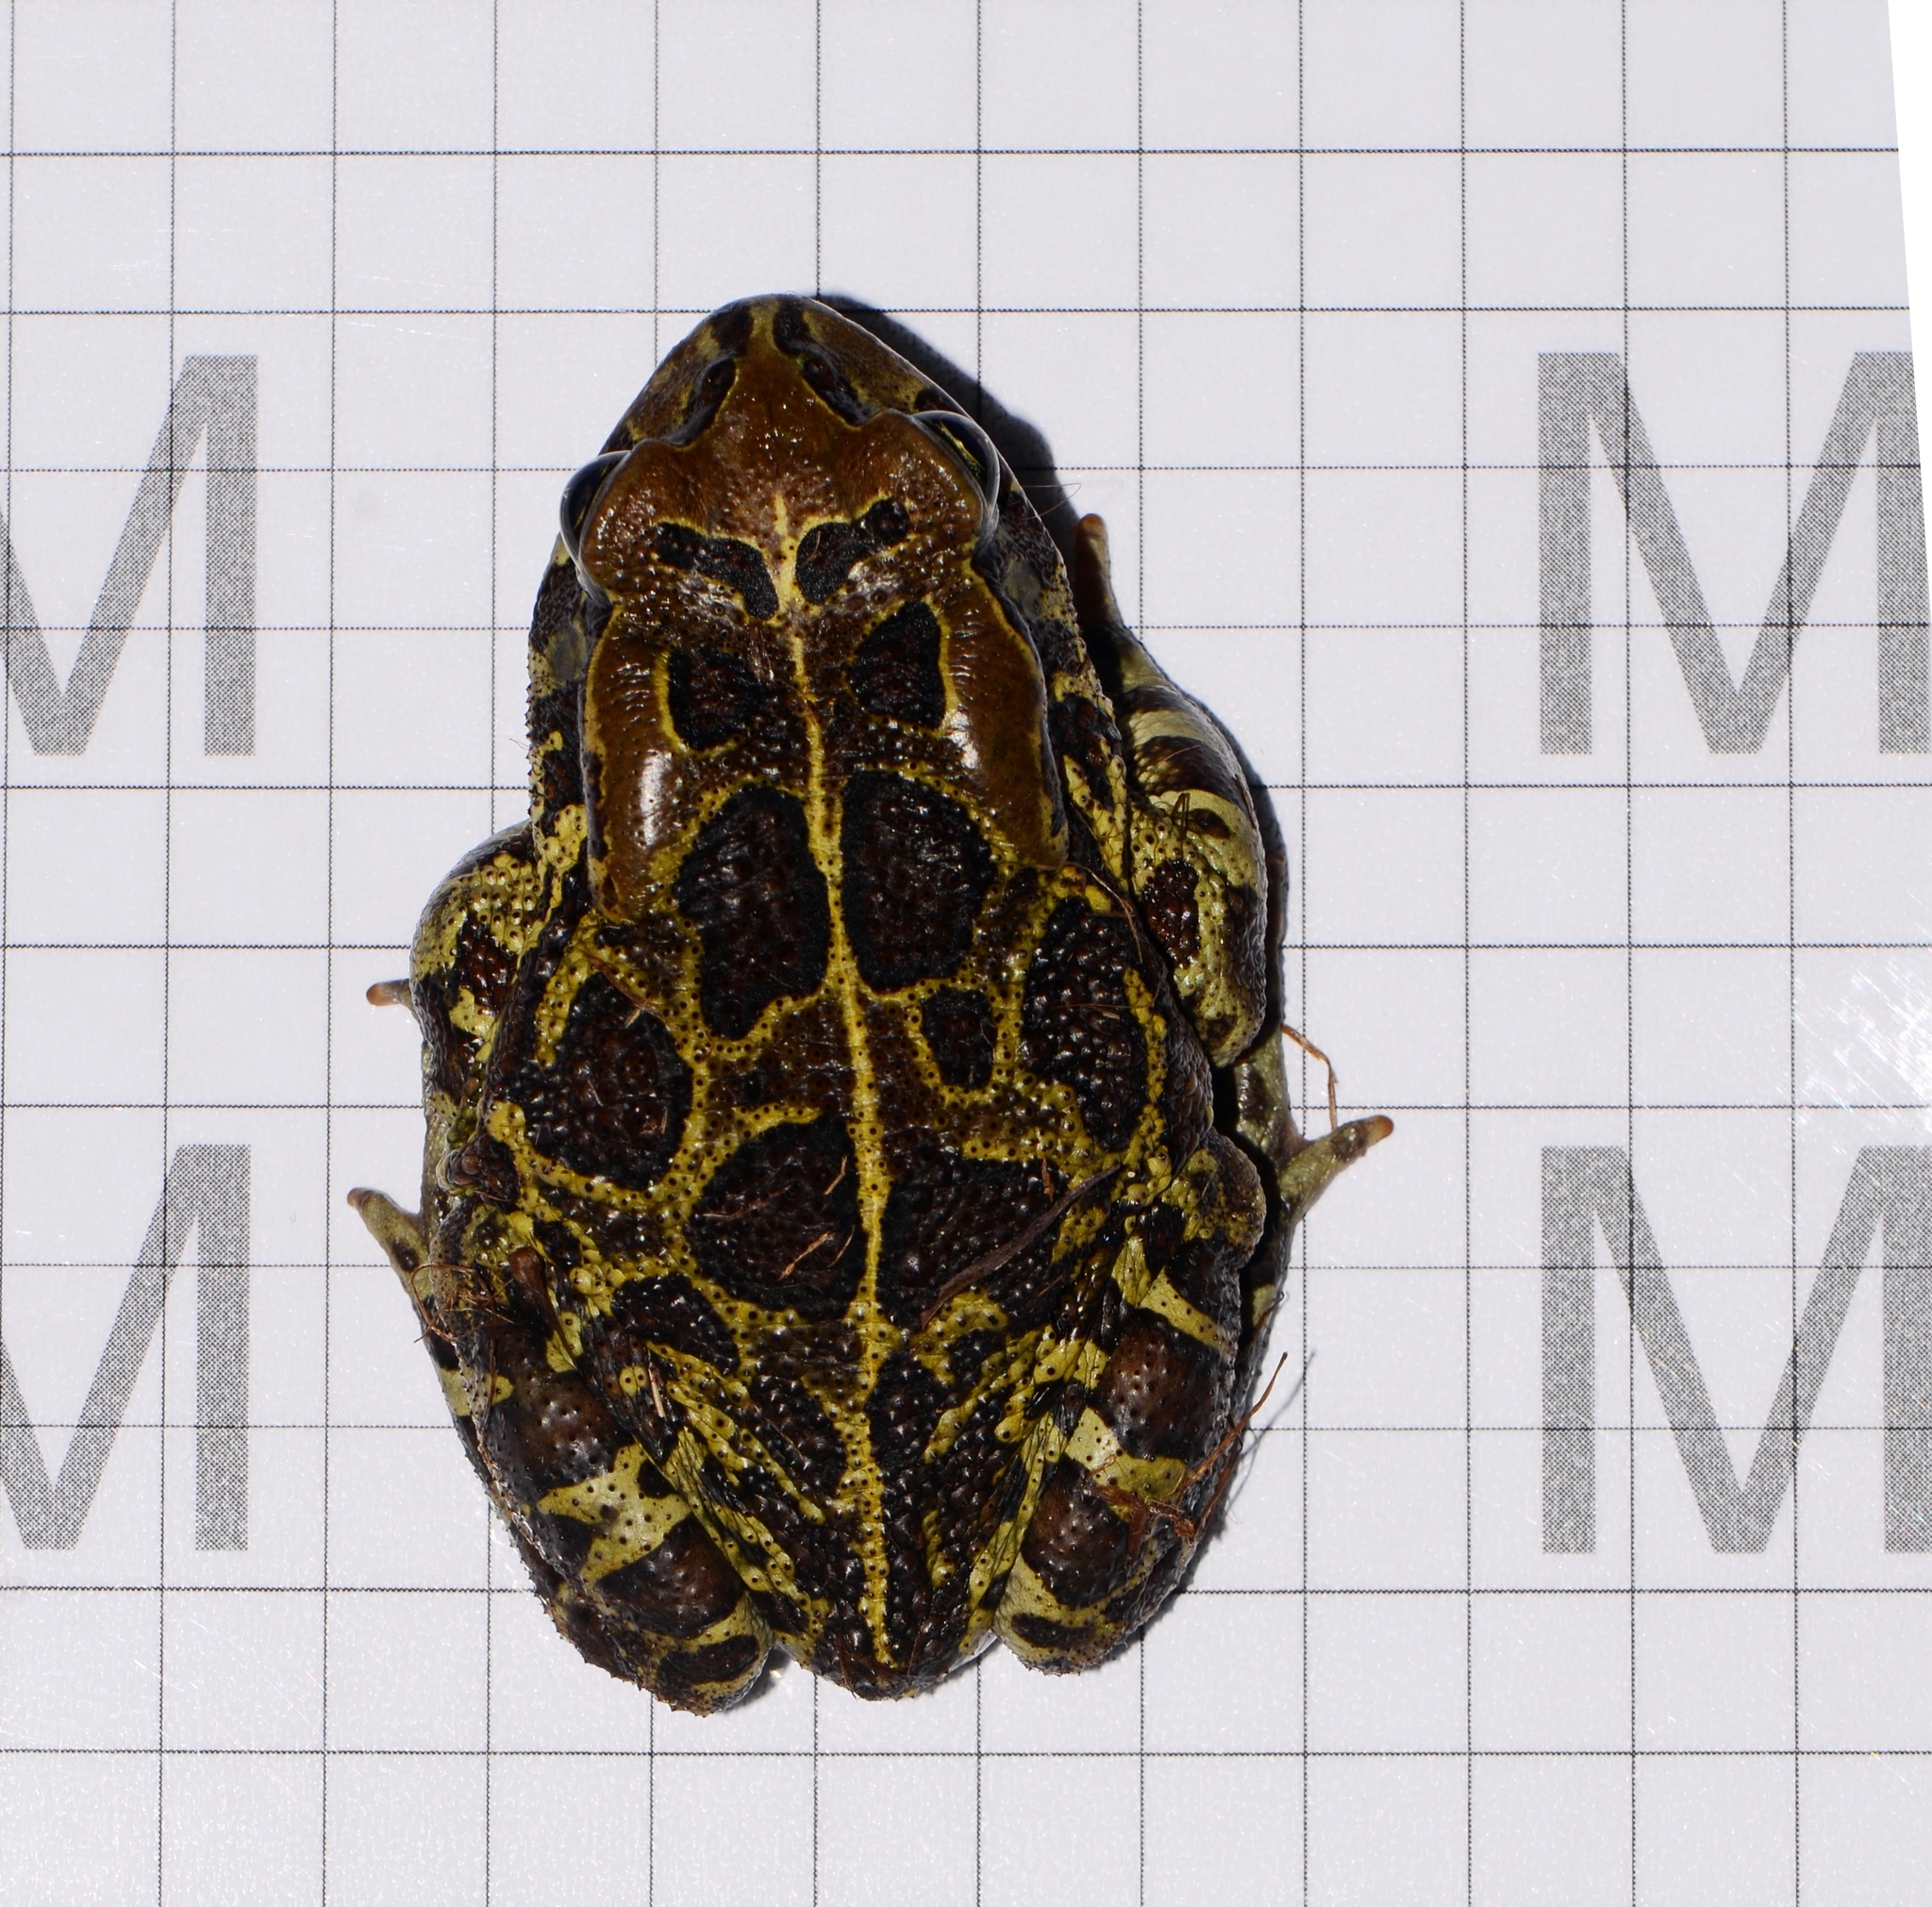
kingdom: Animalia
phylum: Chordata
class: Amphibia
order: Anura
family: Bufonidae
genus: Sclerophrys
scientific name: Sclerophrys pantherina
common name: Panther toad
